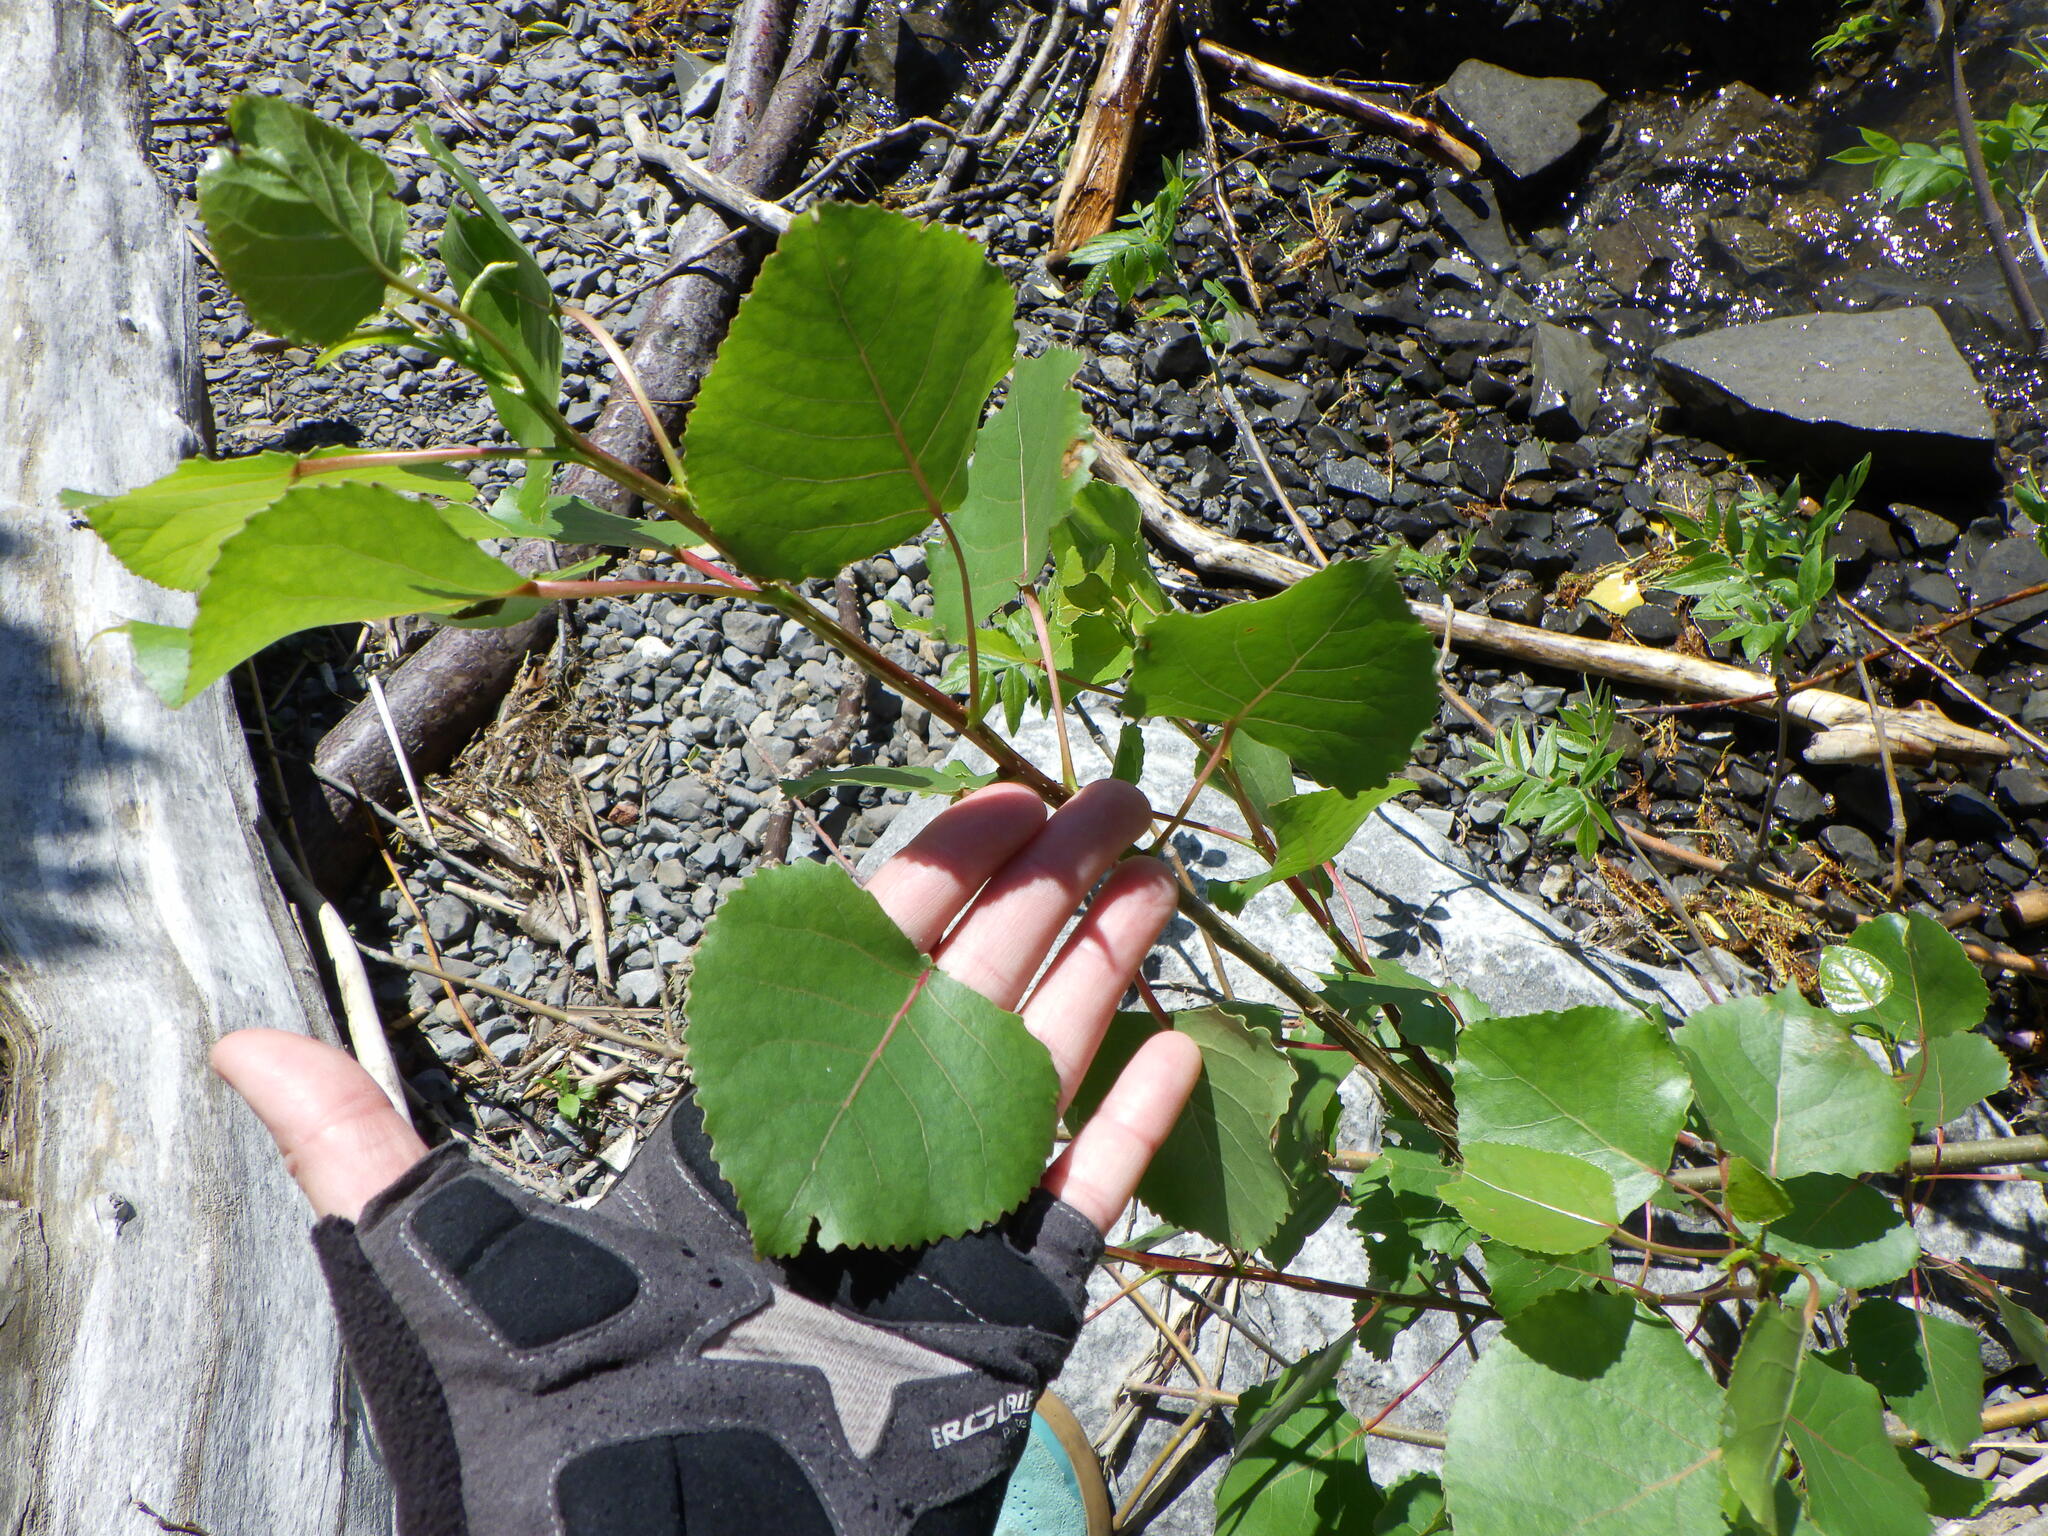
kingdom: Plantae
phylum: Tracheophyta
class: Magnoliopsida
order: Malpighiales
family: Salicaceae
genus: Populus
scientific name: Populus deltoides
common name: Eastern cottonwood
